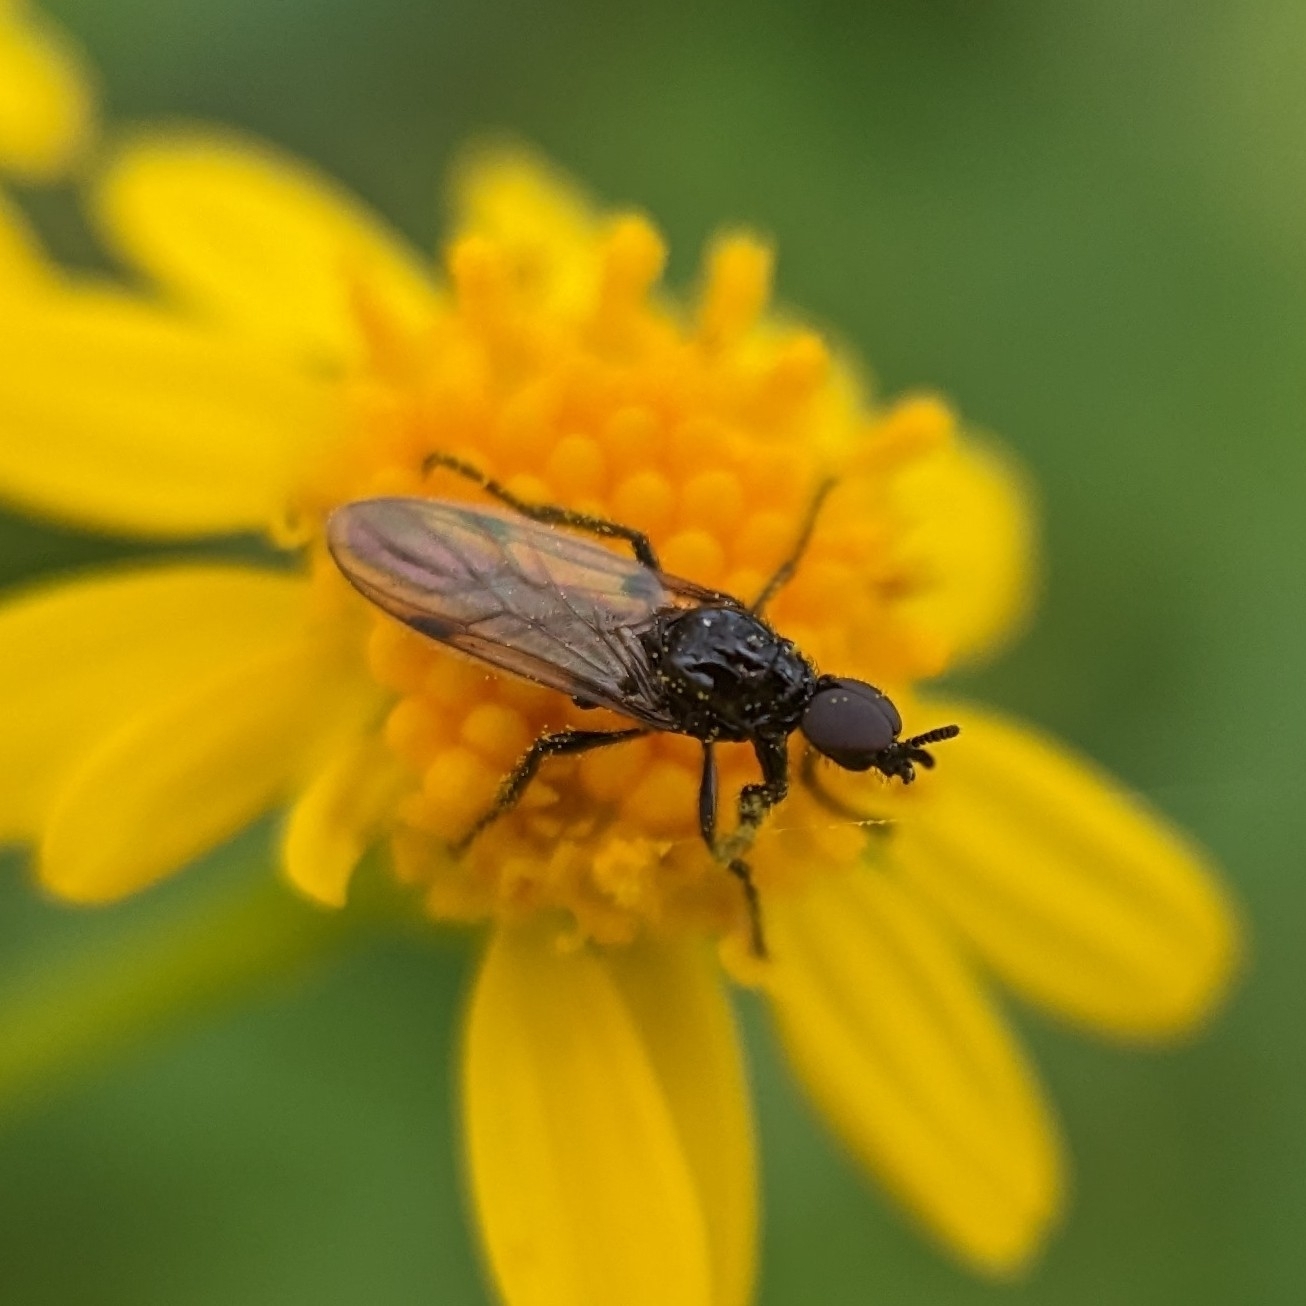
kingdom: Animalia
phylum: Arthropoda
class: Insecta
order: Diptera
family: Bibionidae
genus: Dilophus
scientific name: Dilophus
